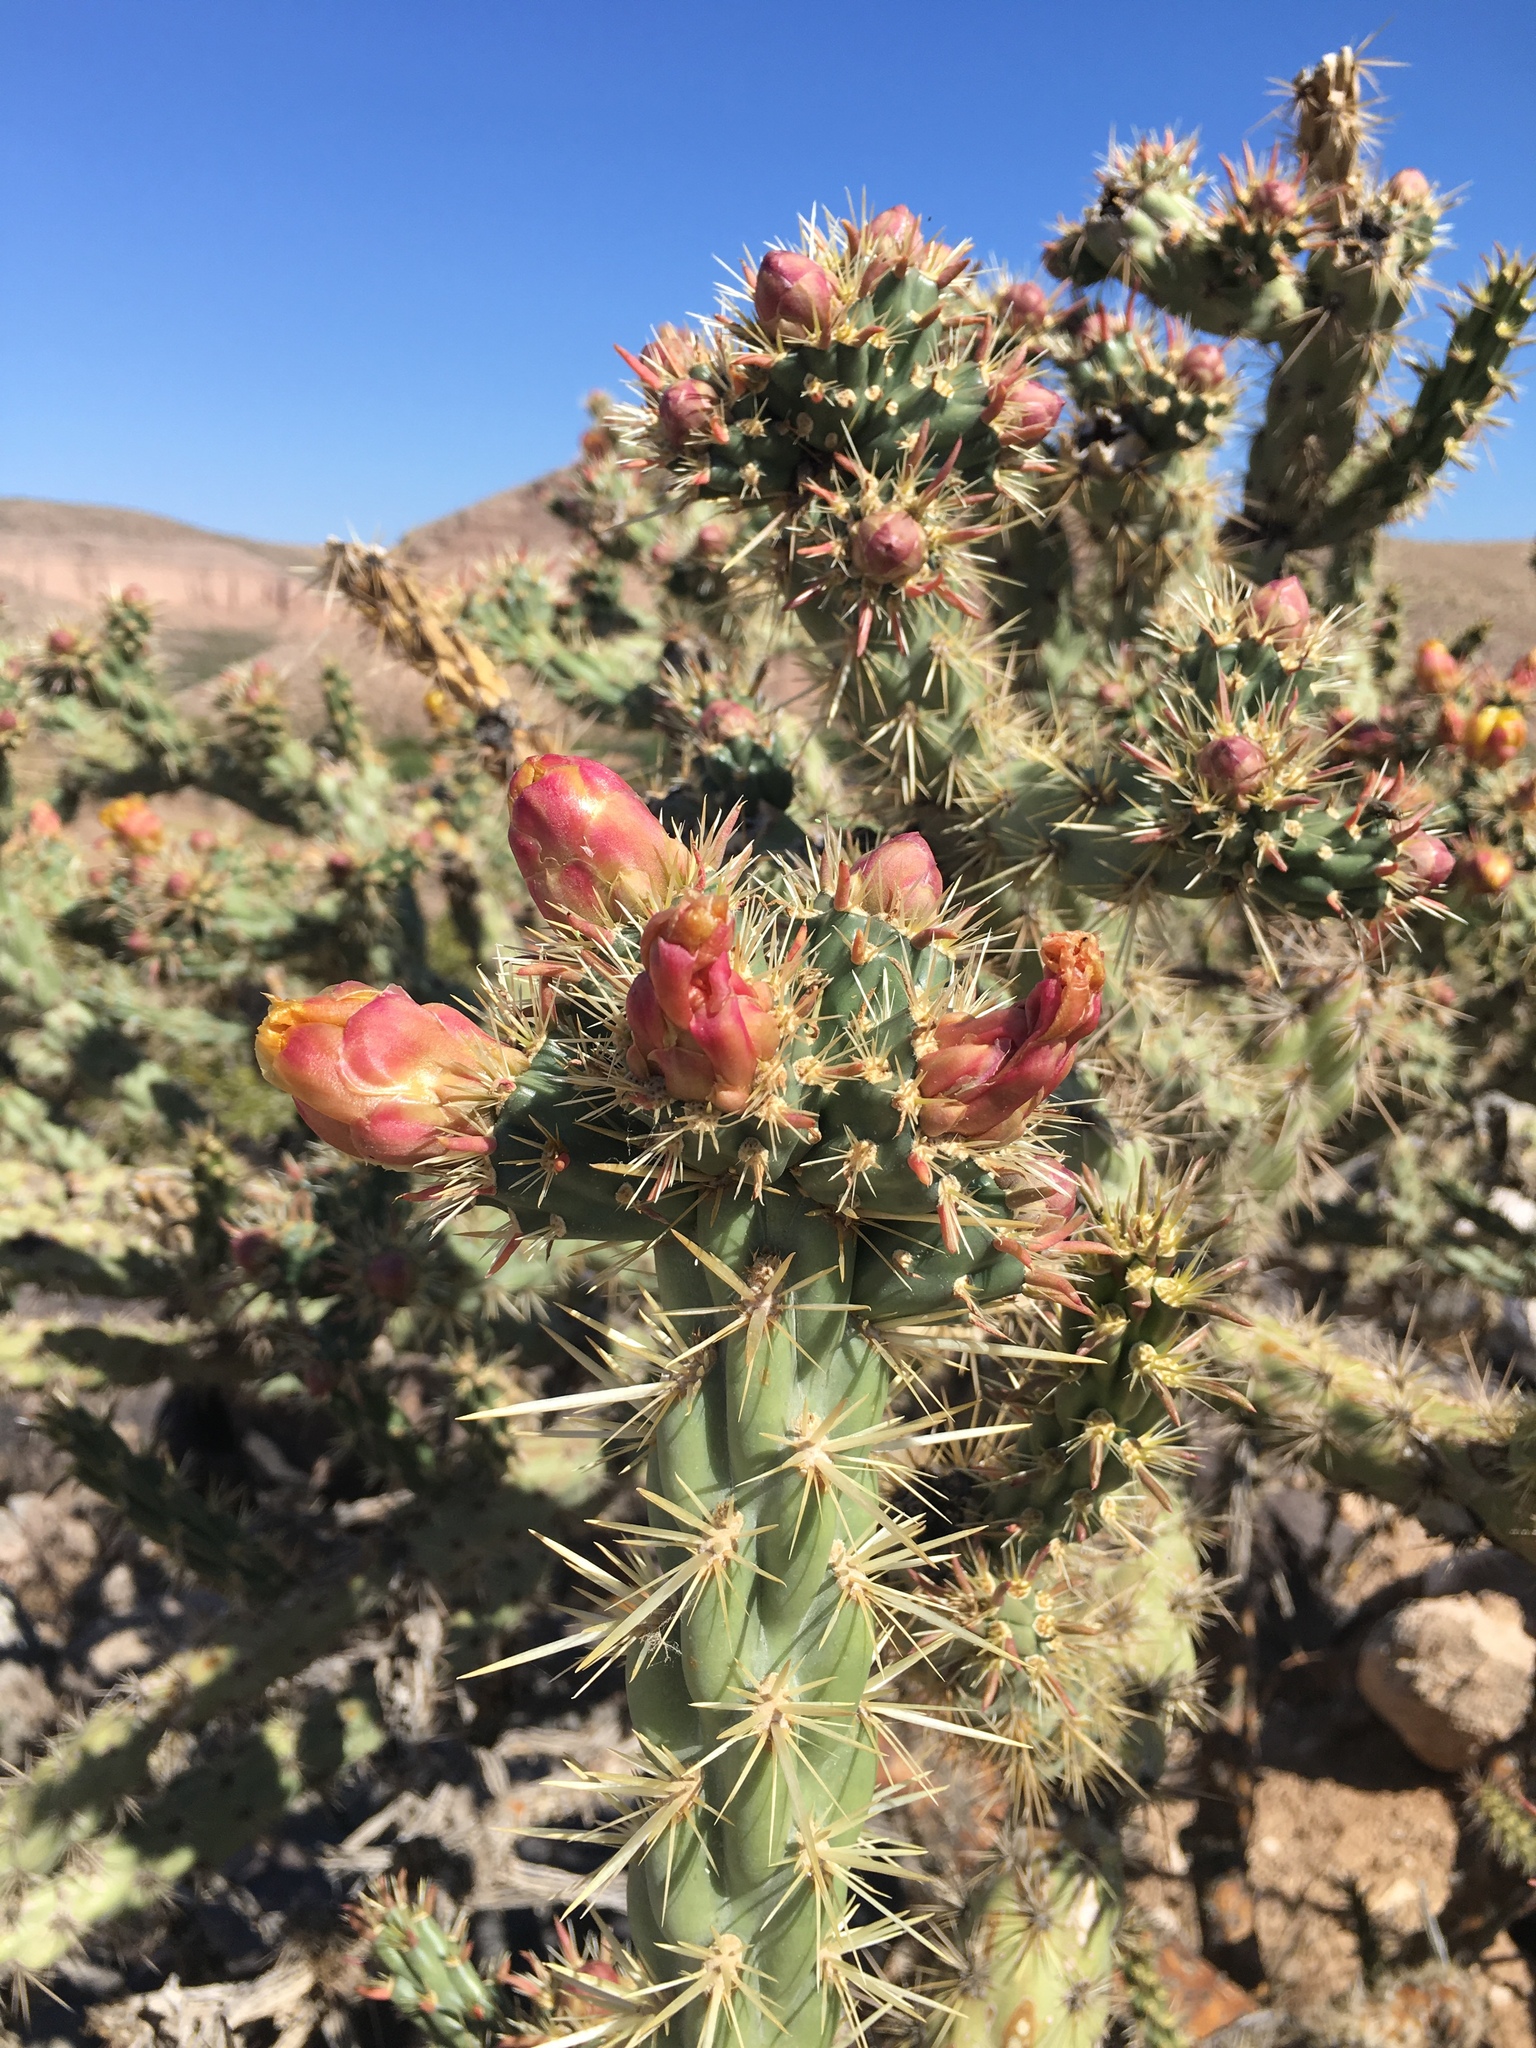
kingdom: Plantae
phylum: Tracheophyta
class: Magnoliopsida
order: Caryophyllales
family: Cactaceae
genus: Cylindropuntia
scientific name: Cylindropuntia acanthocarpa
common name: Buckhorn cholla
